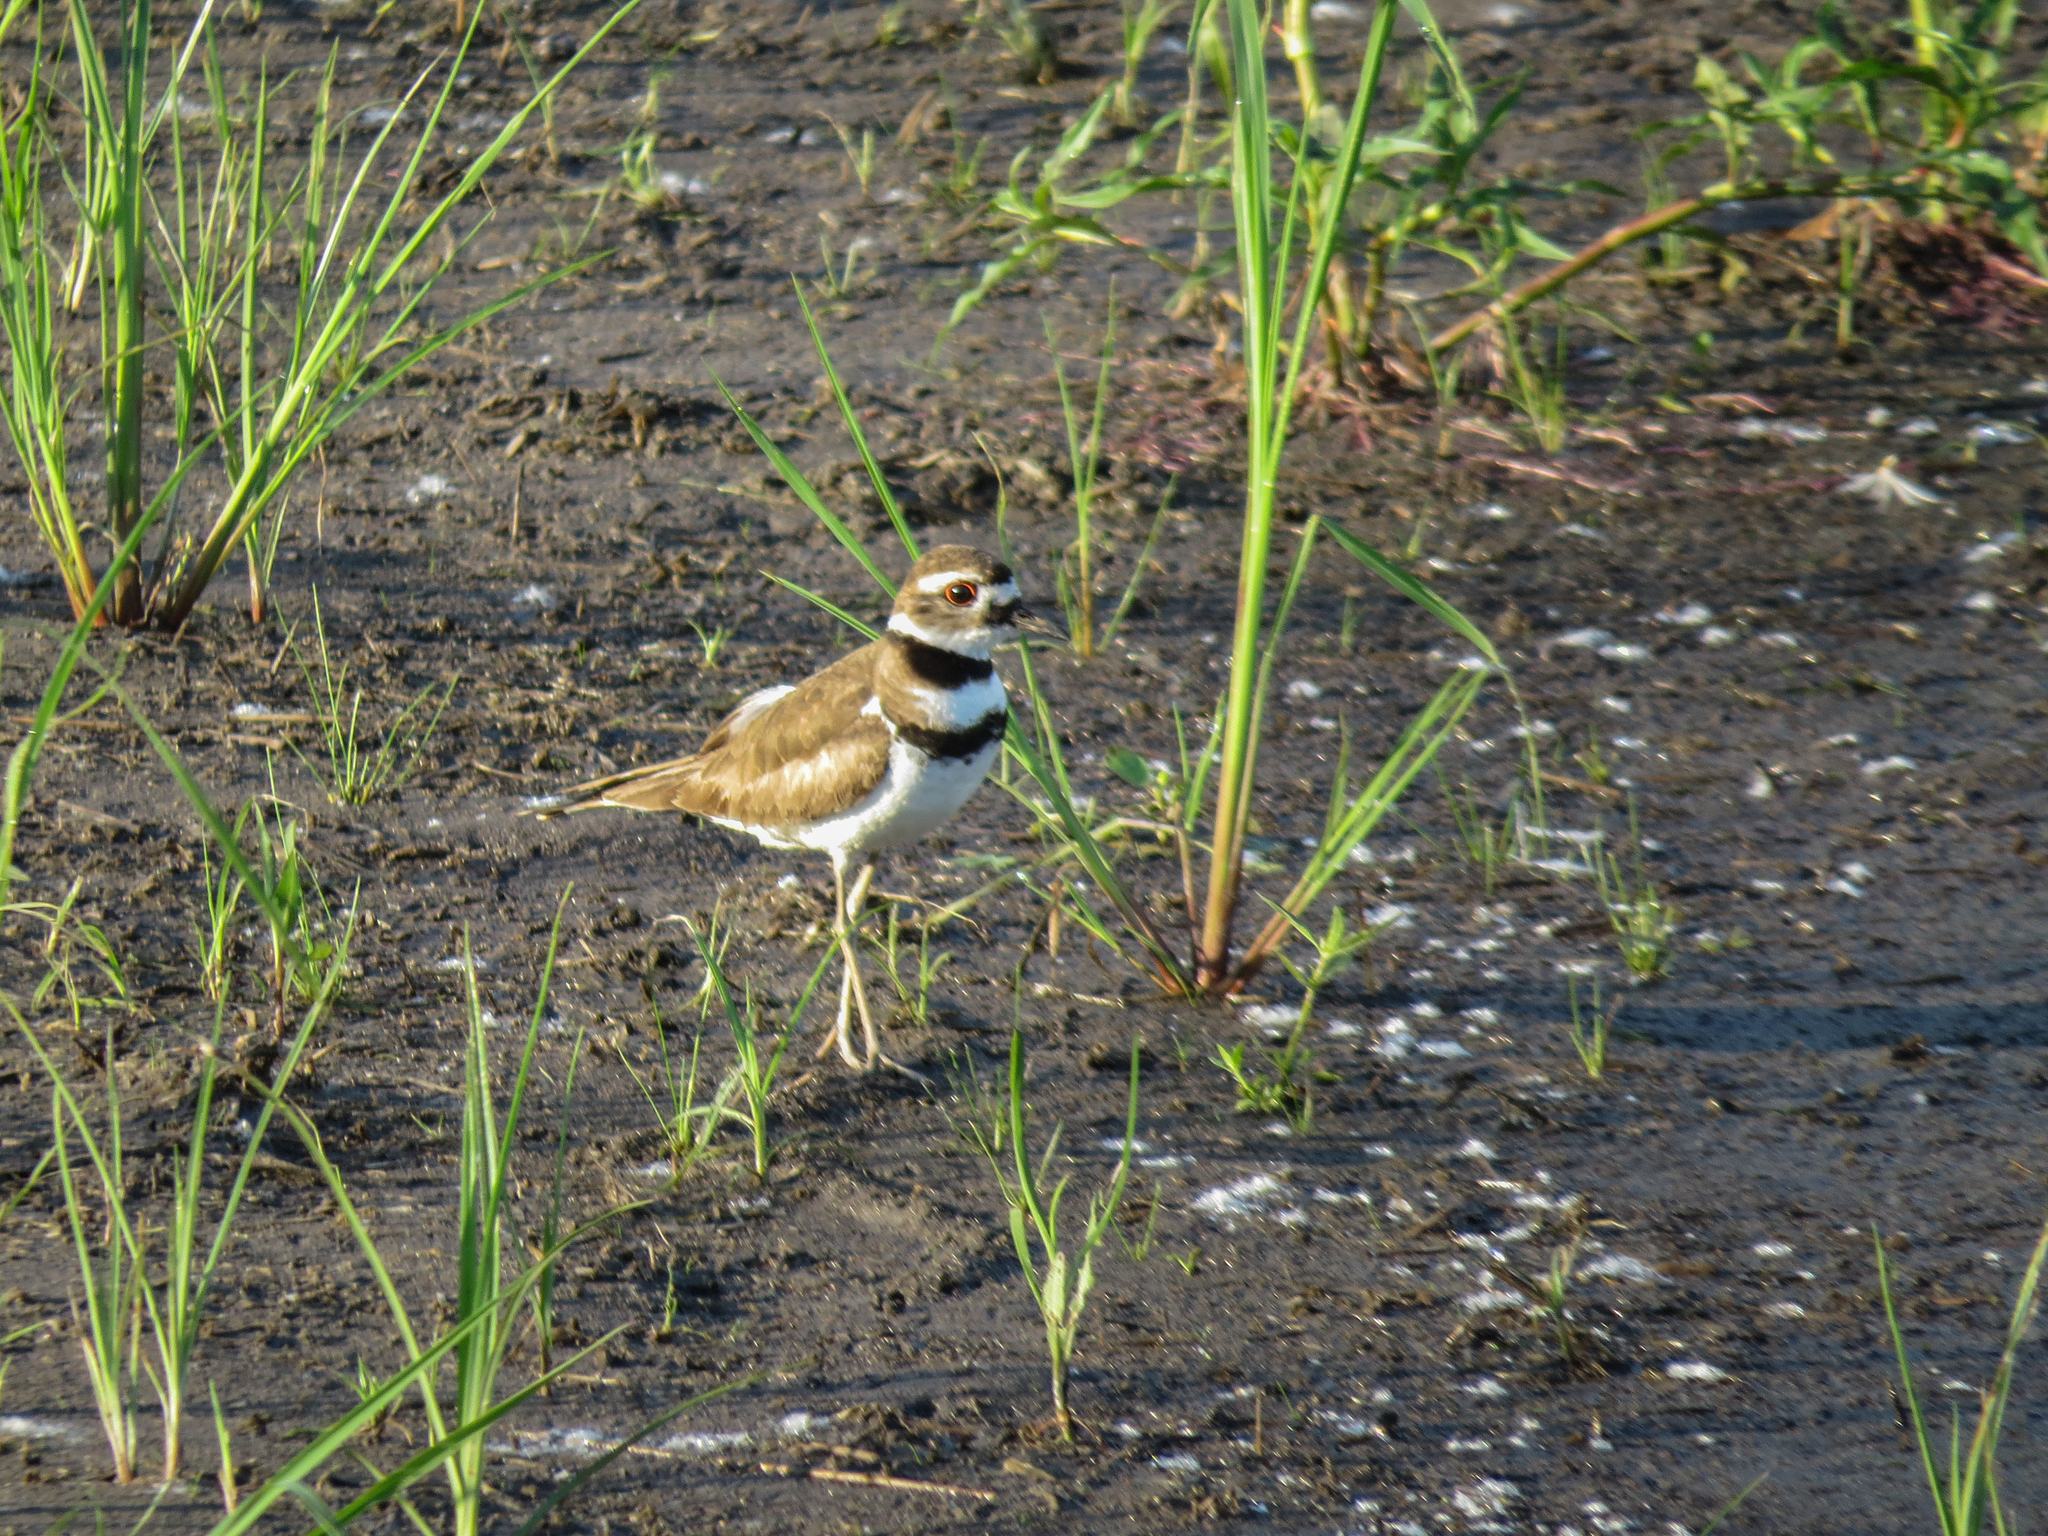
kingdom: Animalia
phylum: Chordata
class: Aves
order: Charadriiformes
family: Charadriidae
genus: Charadrius
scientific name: Charadrius vociferus
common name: Killdeer
